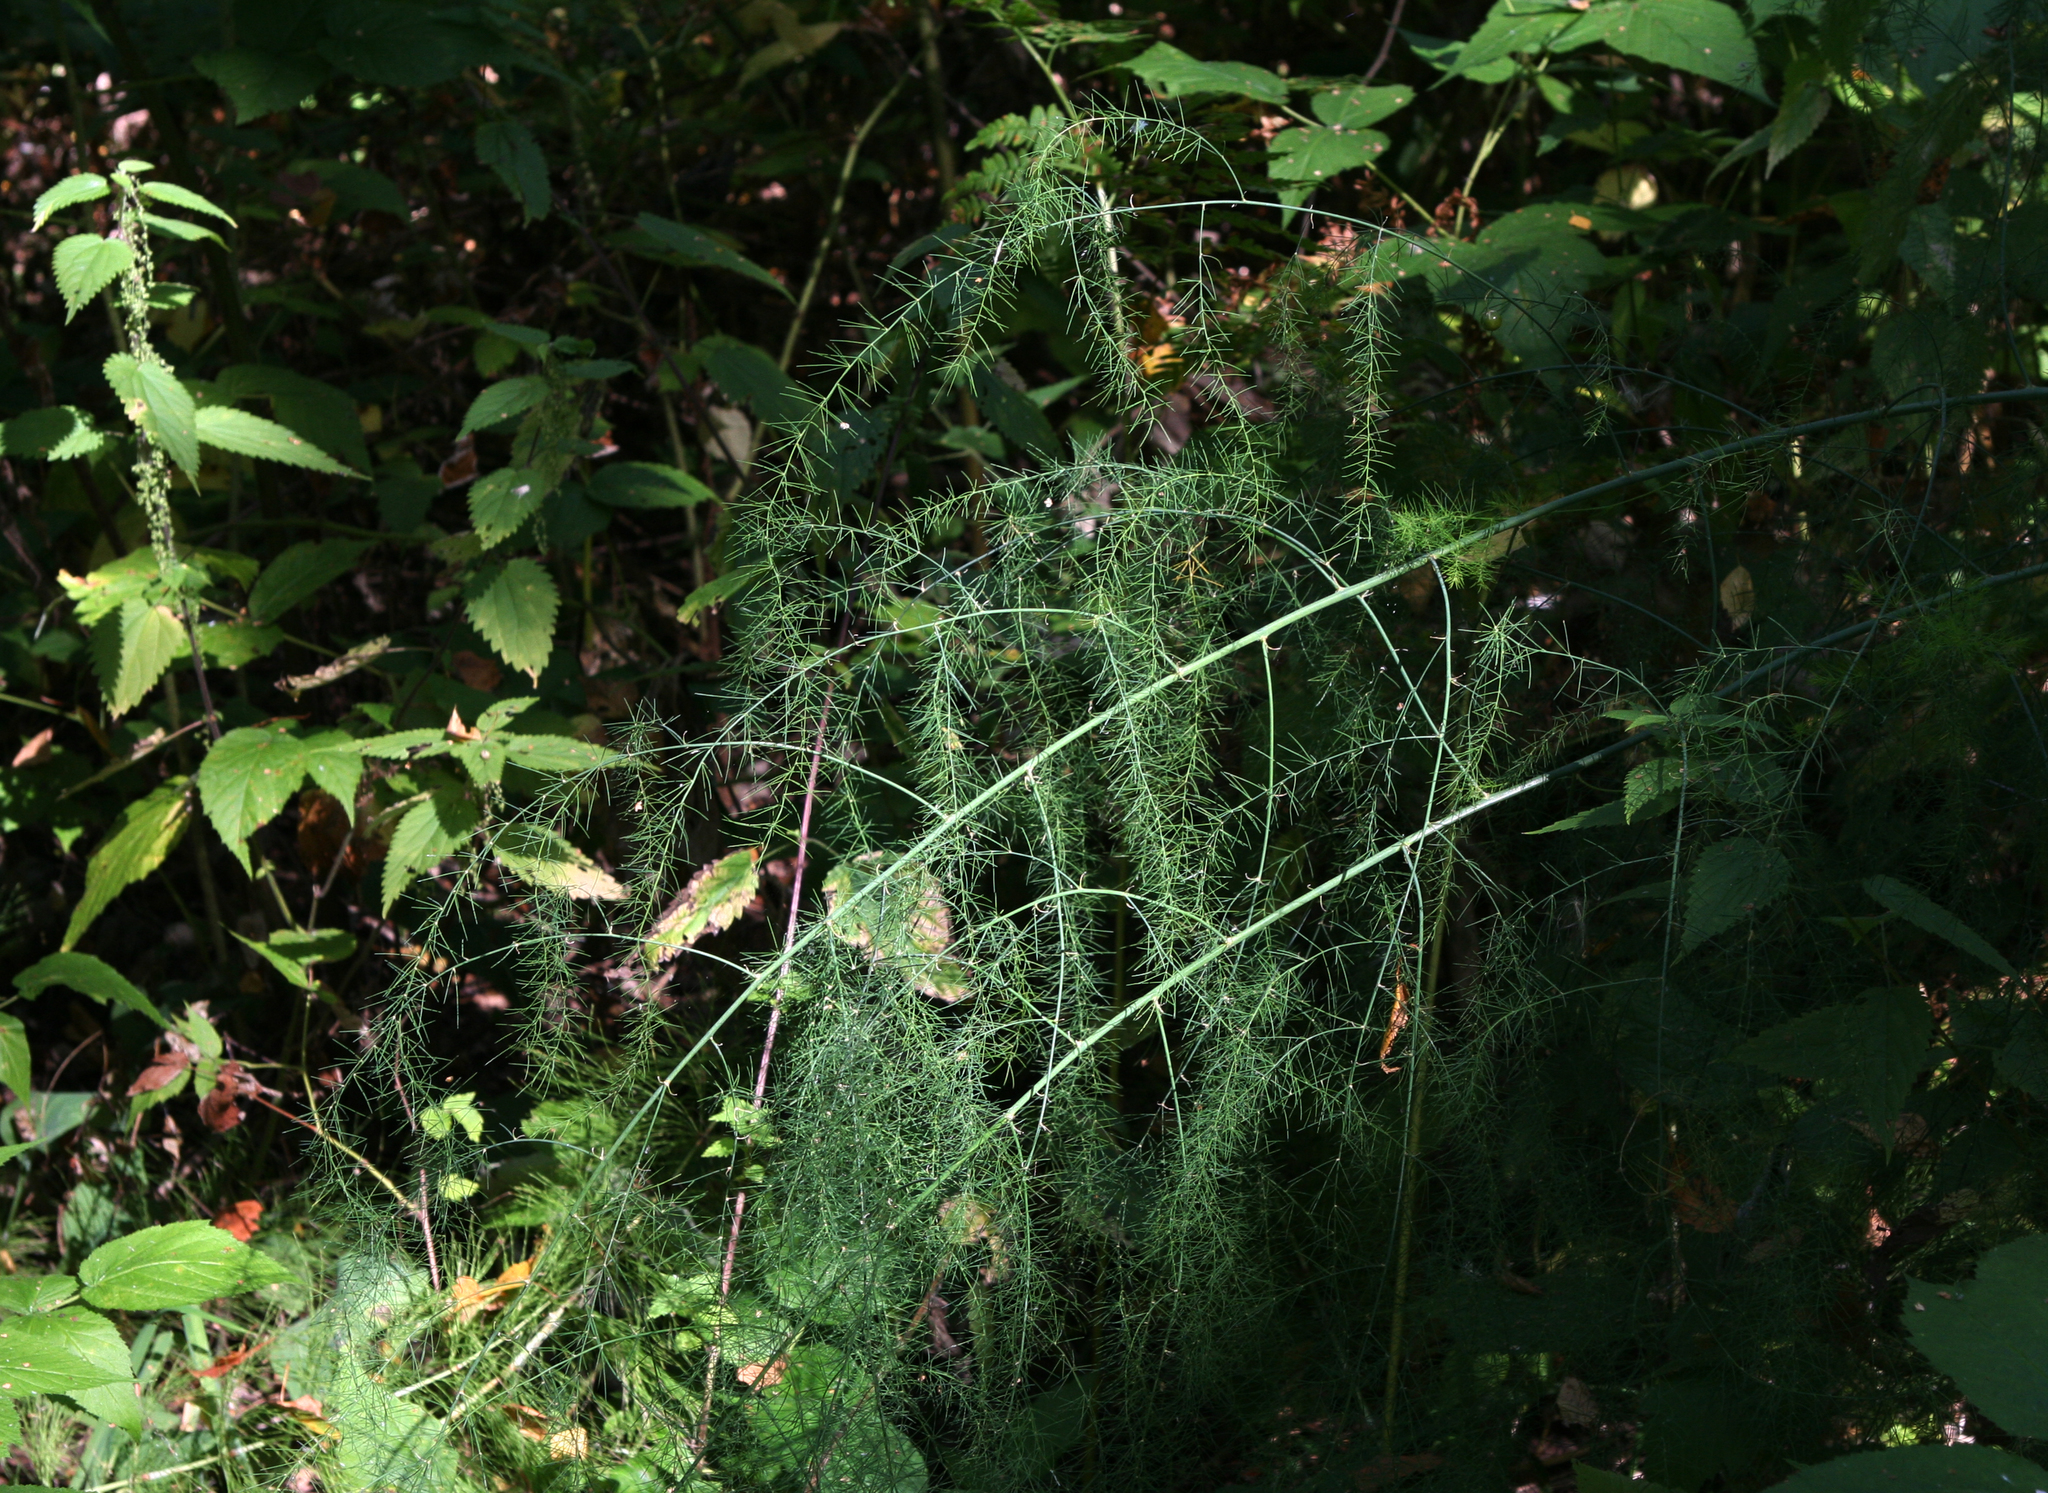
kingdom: Plantae
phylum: Tracheophyta
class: Liliopsida
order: Asparagales
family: Asparagaceae
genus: Asparagus
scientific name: Asparagus officinalis
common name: Garden asparagus
